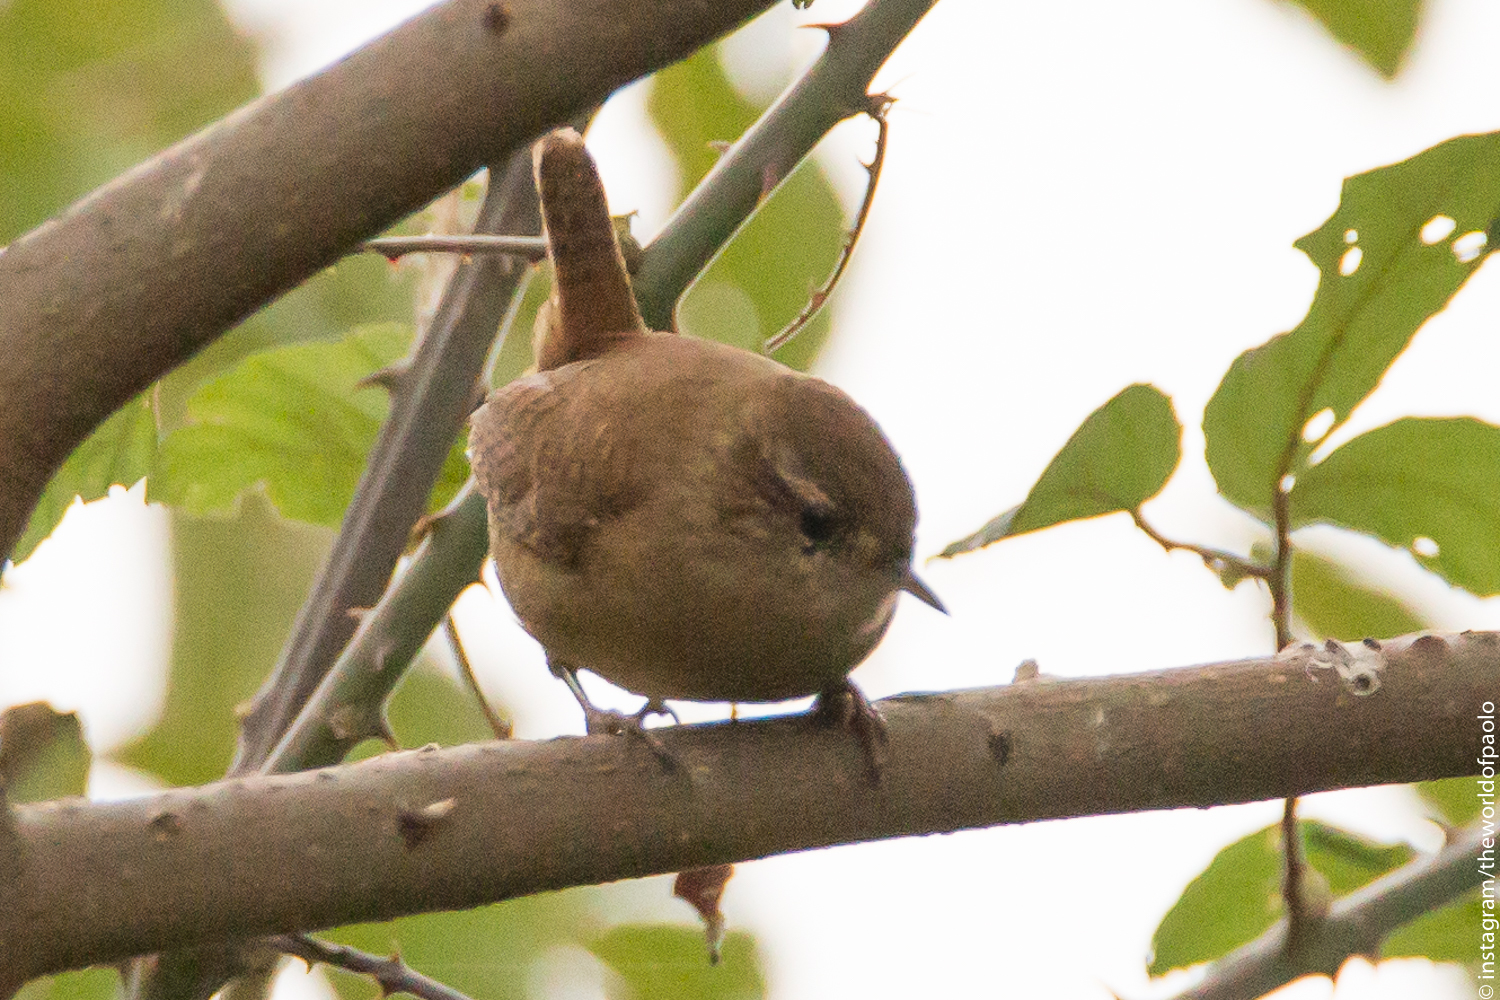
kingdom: Animalia
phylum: Chordata
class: Aves
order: Passeriformes
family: Troglodytidae
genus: Troglodytes
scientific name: Troglodytes troglodytes
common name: Eurasian wren
